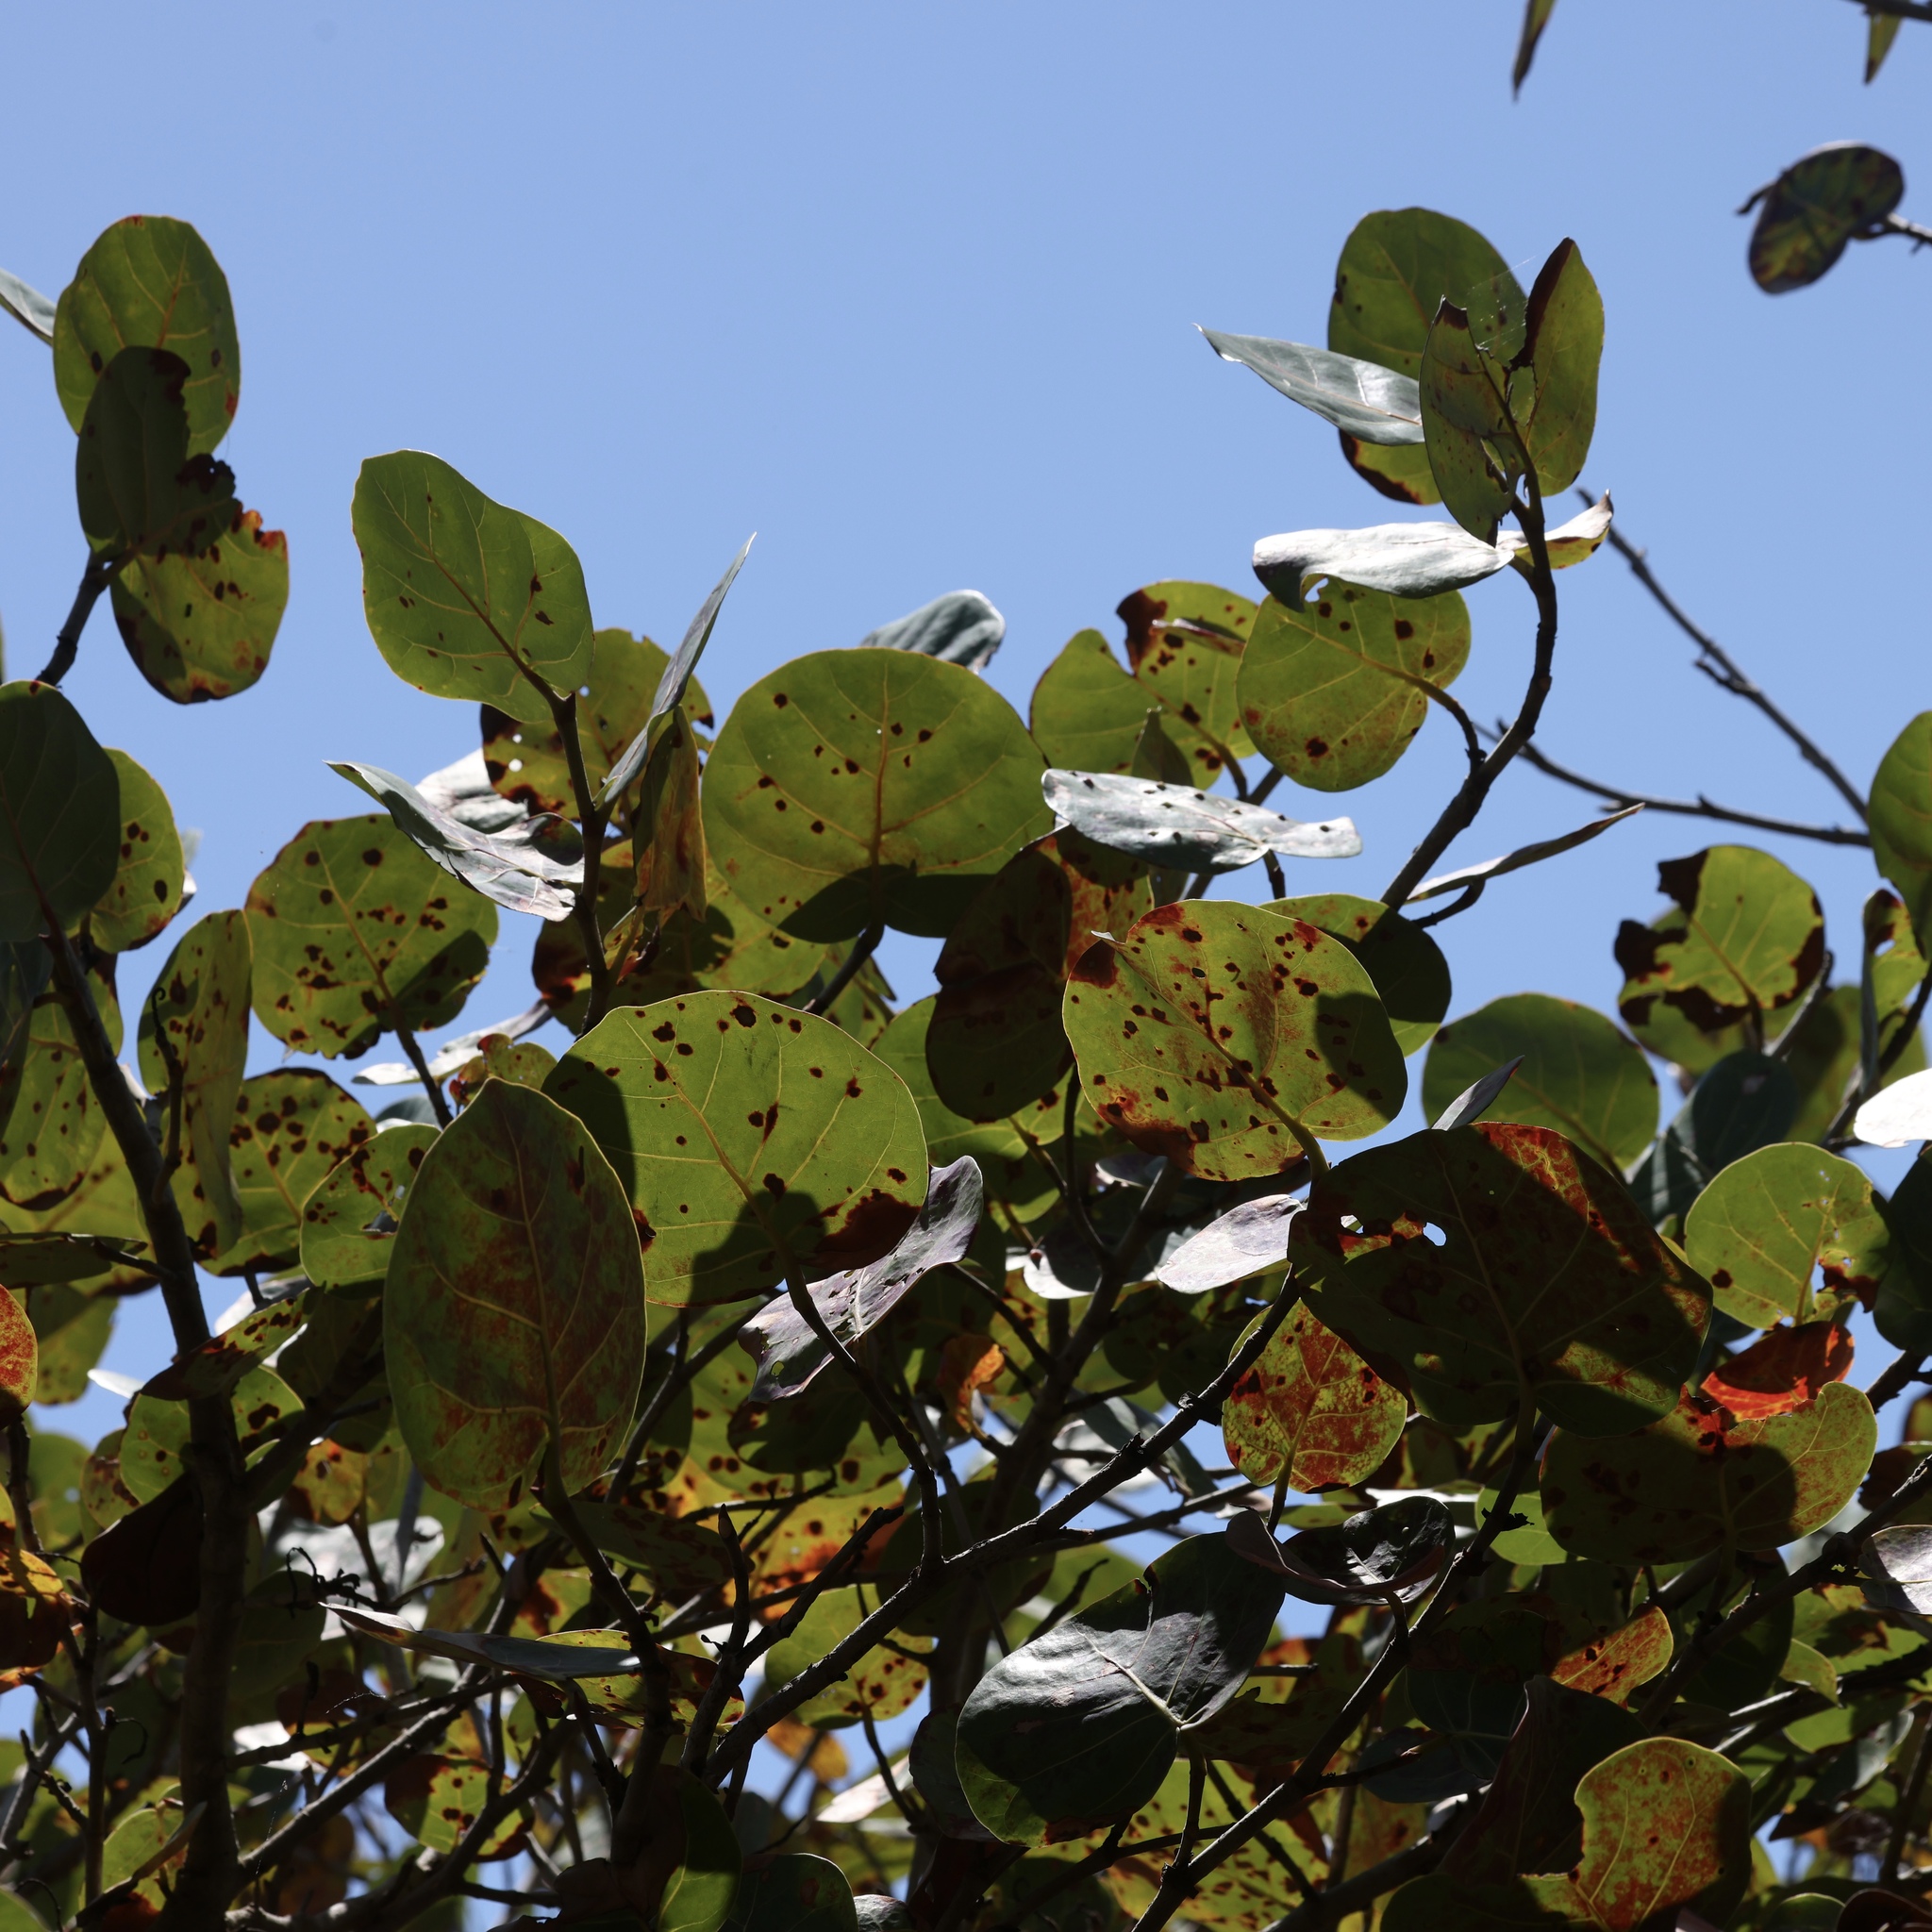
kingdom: Plantae
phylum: Tracheophyta
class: Magnoliopsida
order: Caryophyllales
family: Polygonaceae
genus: Coccoloba
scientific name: Coccoloba uvifera
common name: Seagrape
